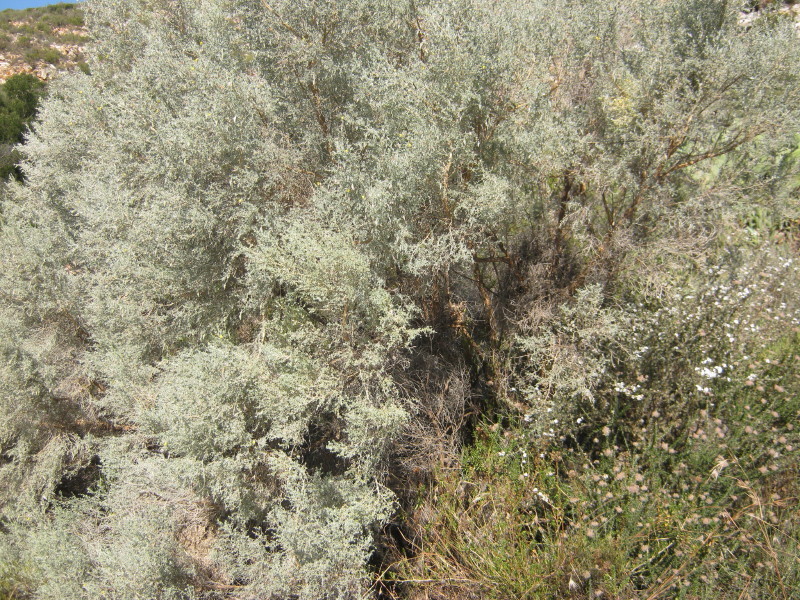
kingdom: Plantae
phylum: Tracheophyta
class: Magnoliopsida
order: Fabales
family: Fabaceae
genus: Aspalathus
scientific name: Aspalathus pedunculata
